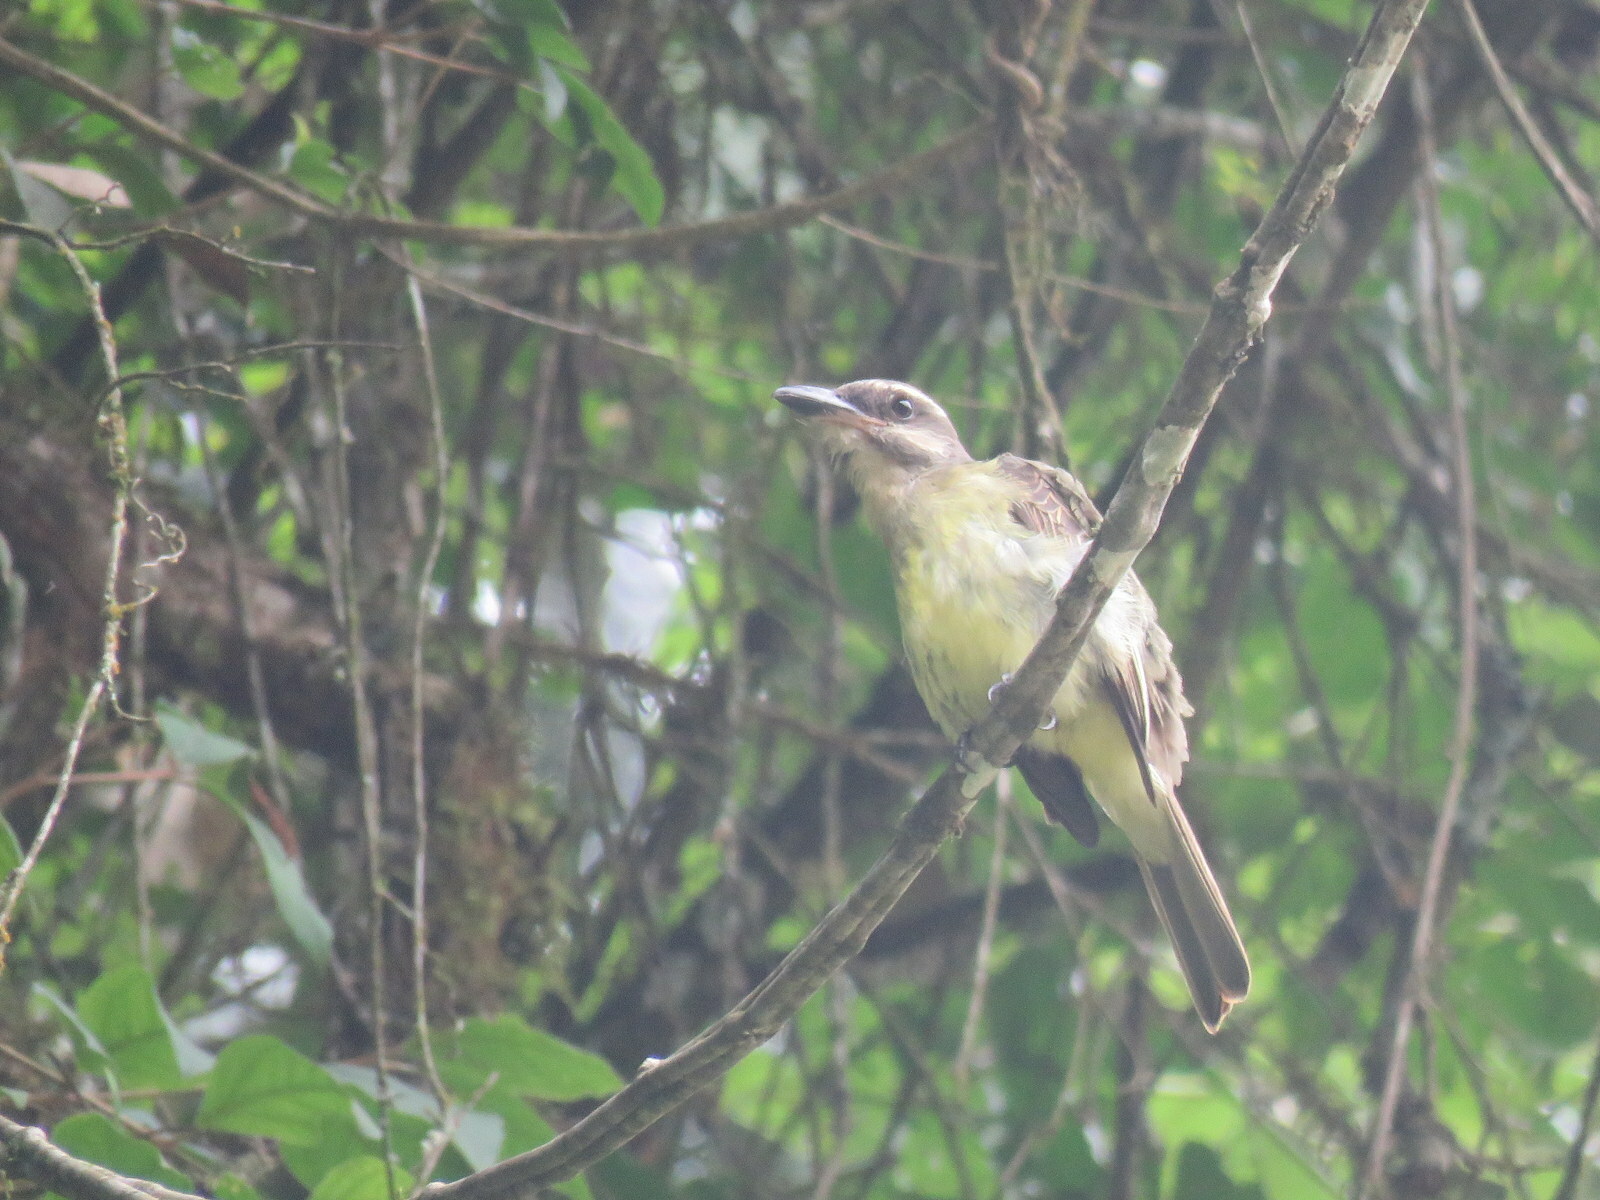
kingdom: Animalia
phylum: Chordata
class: Aves
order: Passeriformes
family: Tyrannidae
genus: Myiodynastes
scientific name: Myiodynastes chrysocephalus
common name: Golden-crowned flycatcher
